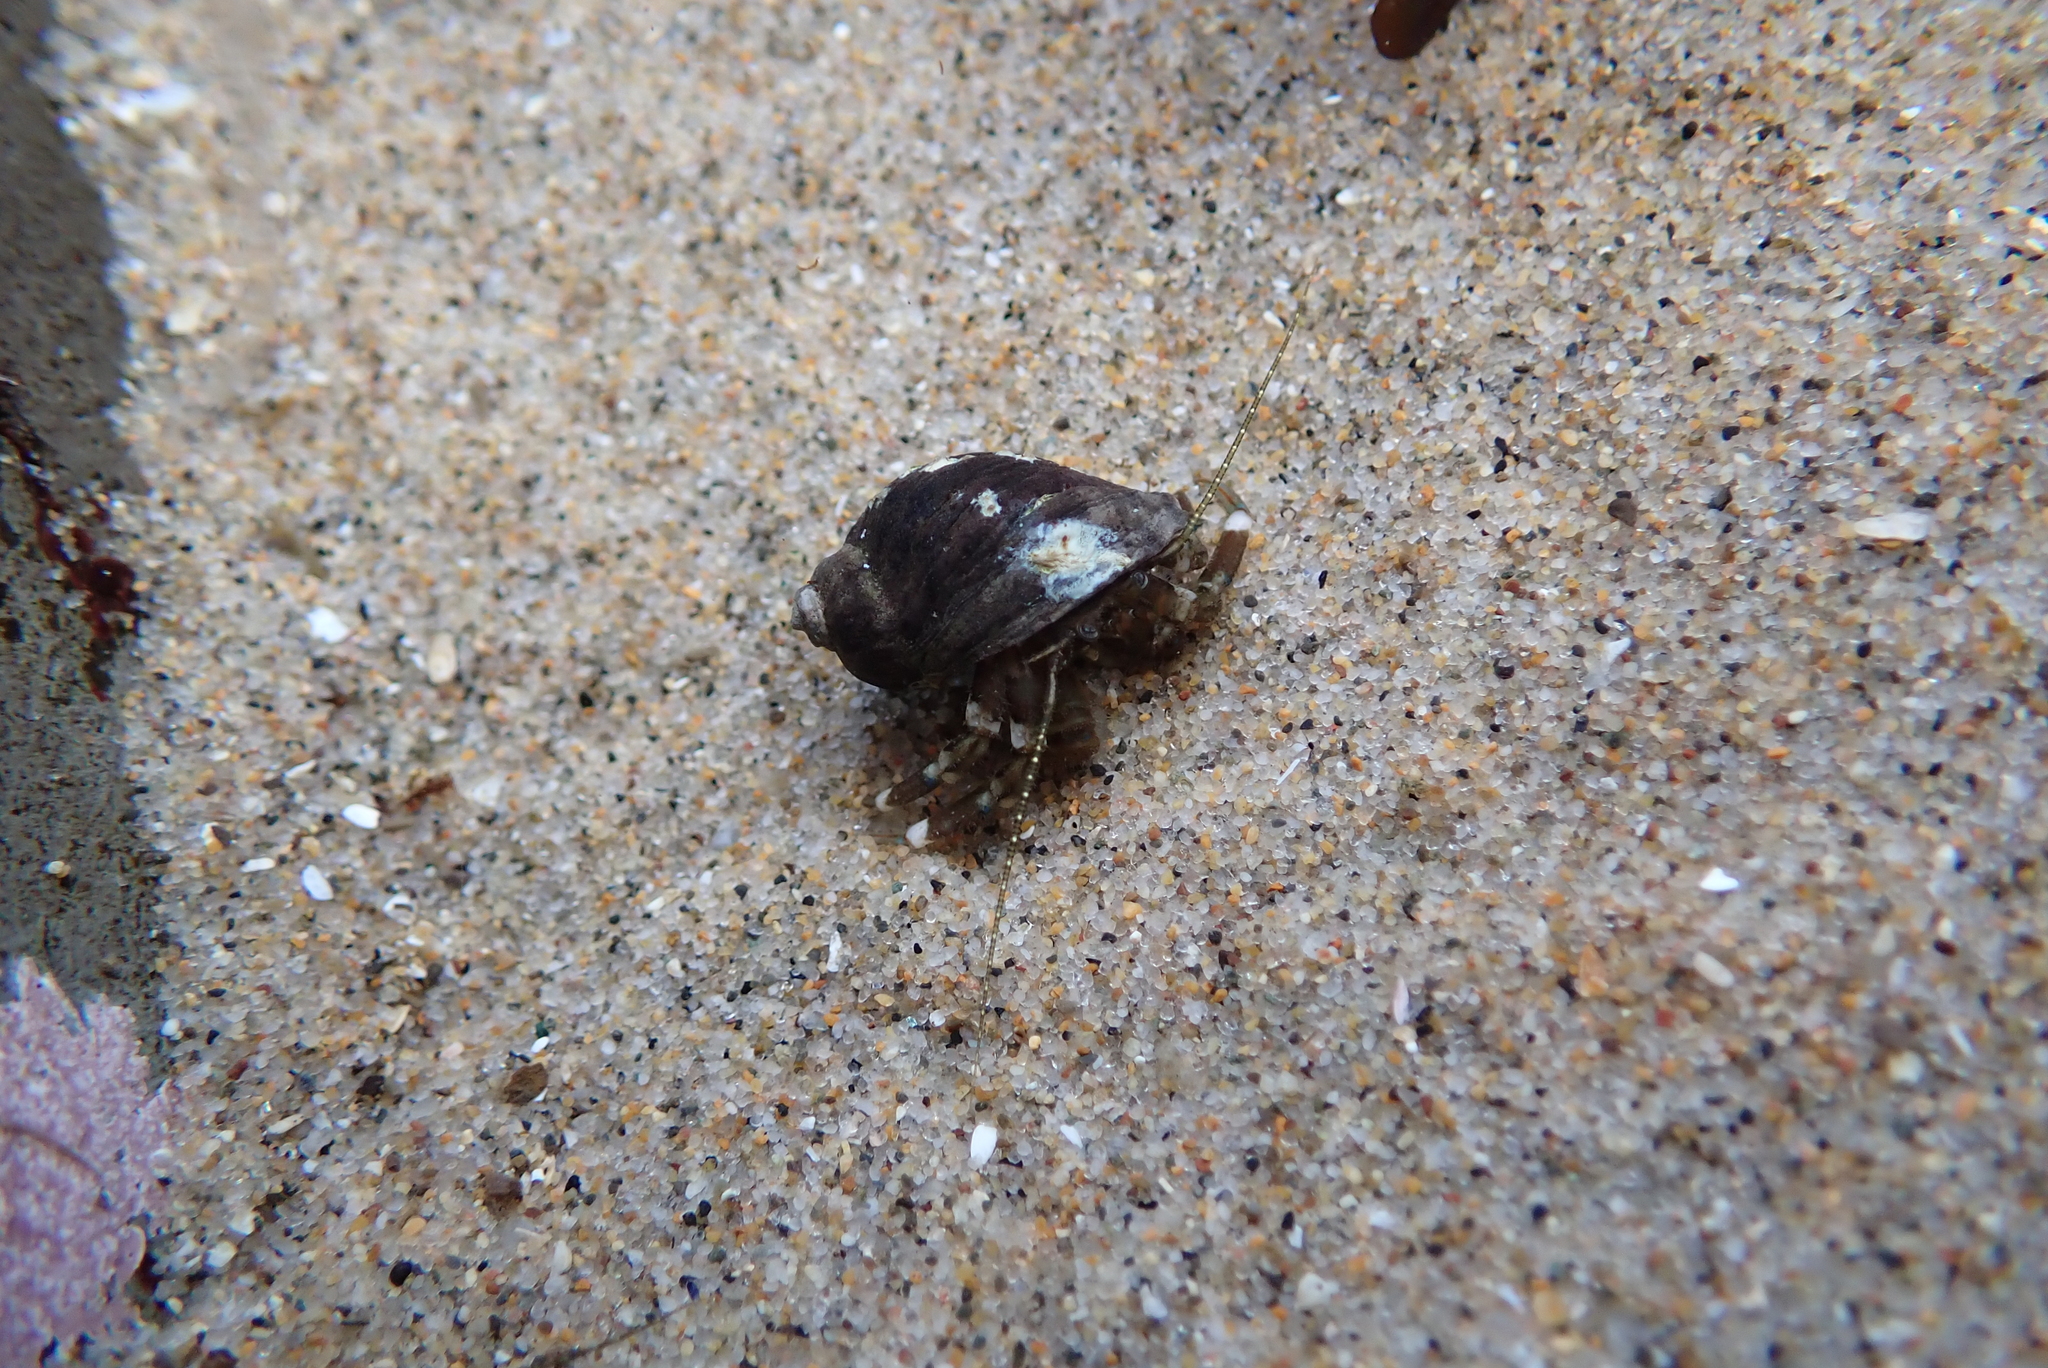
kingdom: Animalia
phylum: Arthropoda
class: Malacostraca
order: Decapoda
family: Paguridae
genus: Pagurus
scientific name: Pagurus hirsutiusculus
